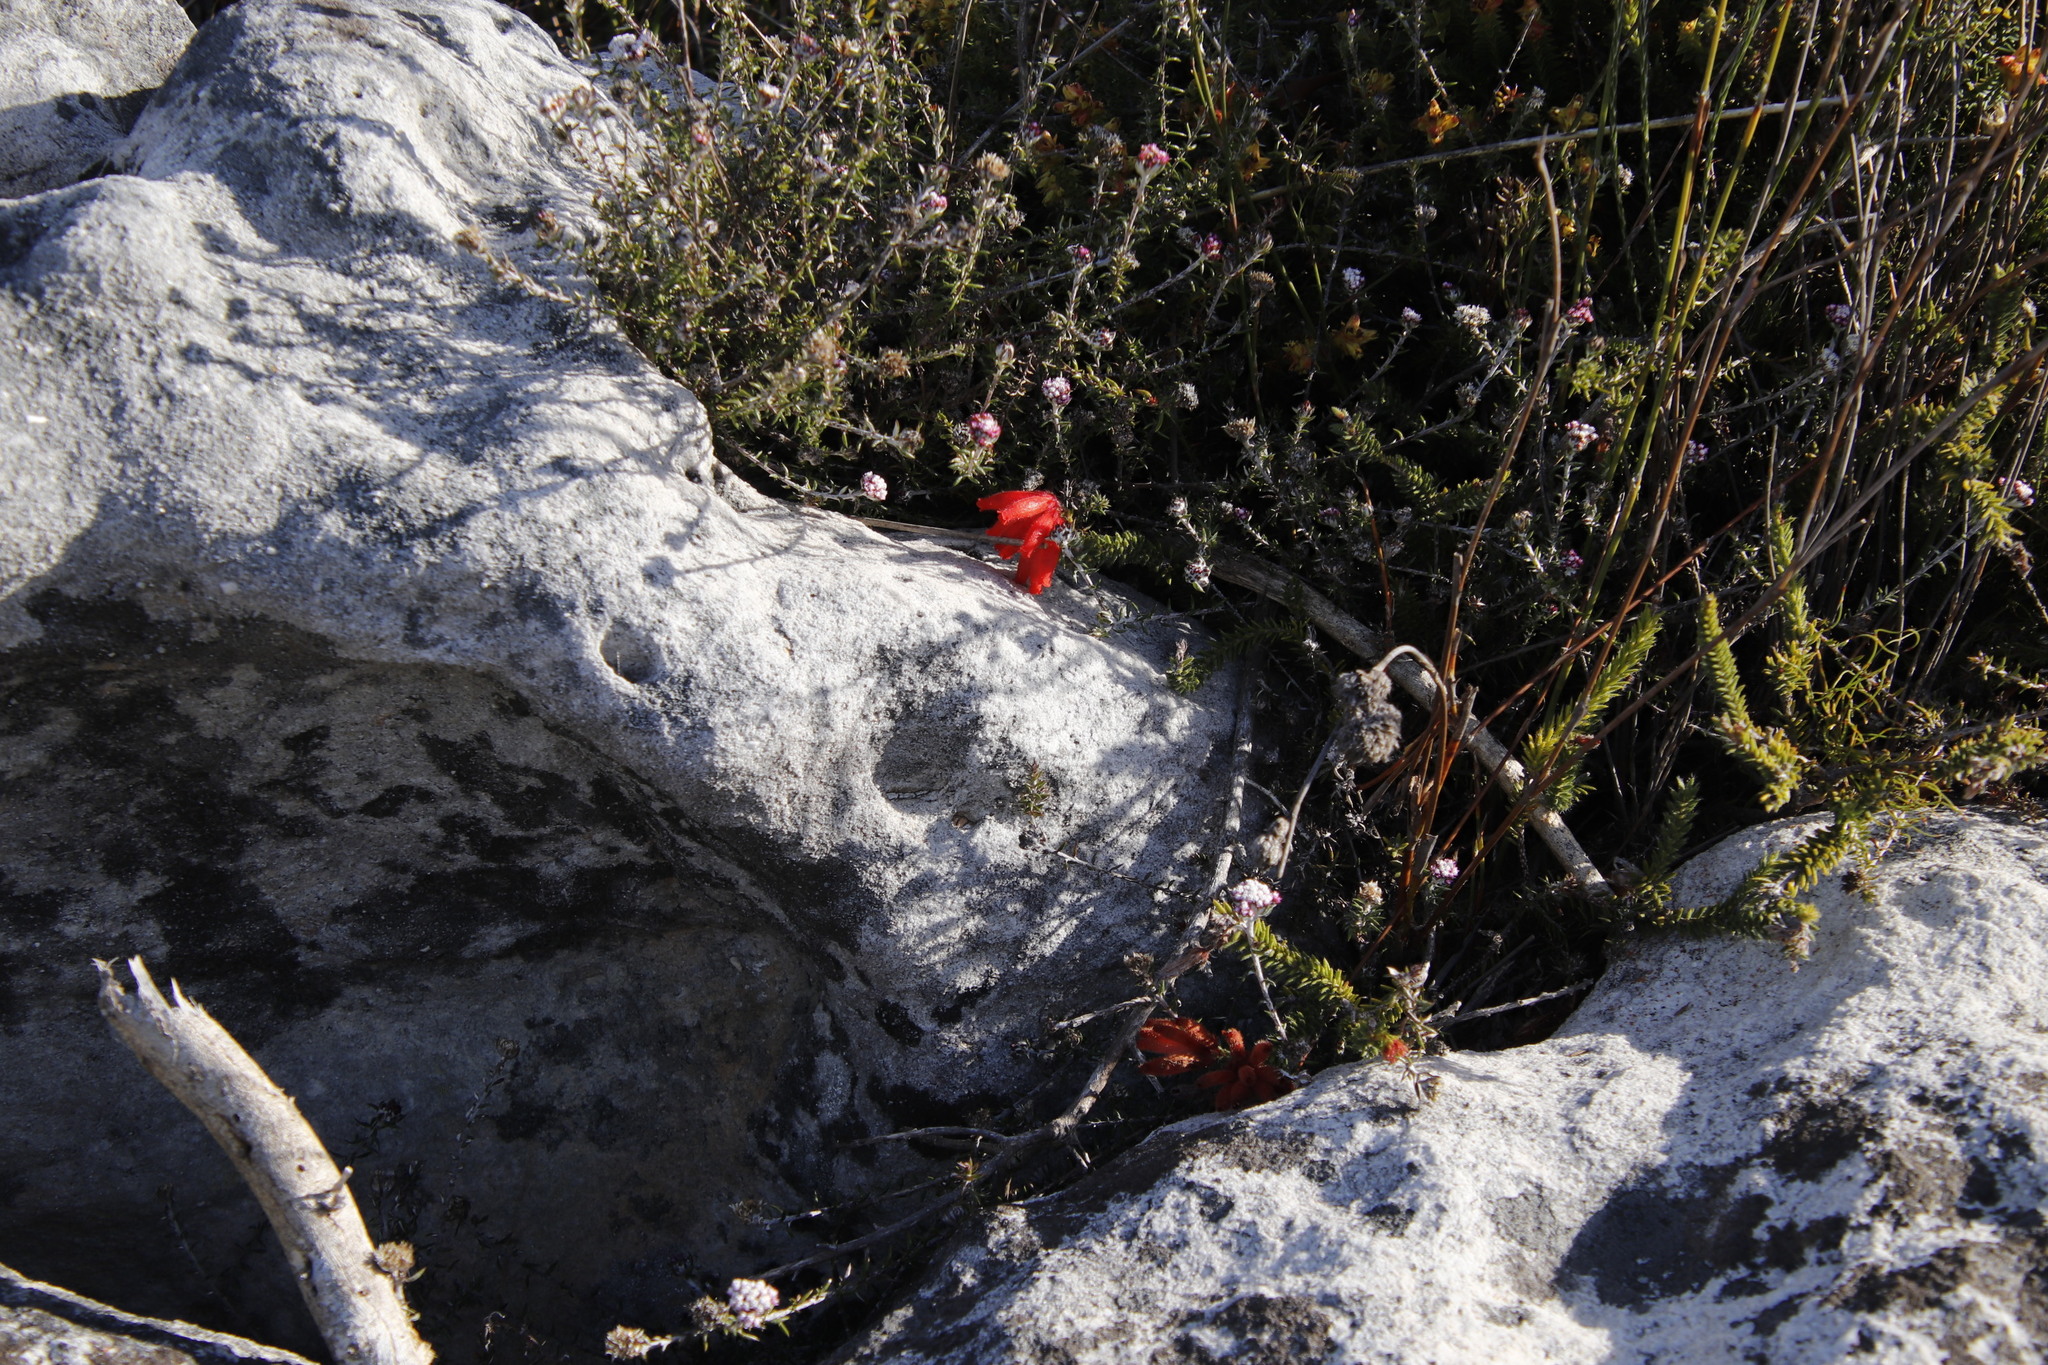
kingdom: Plantae
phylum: Tracheophyta
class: Magnoliopsida
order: Ericales
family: Ericaceae
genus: Erica
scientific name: Erica cerinthoides
